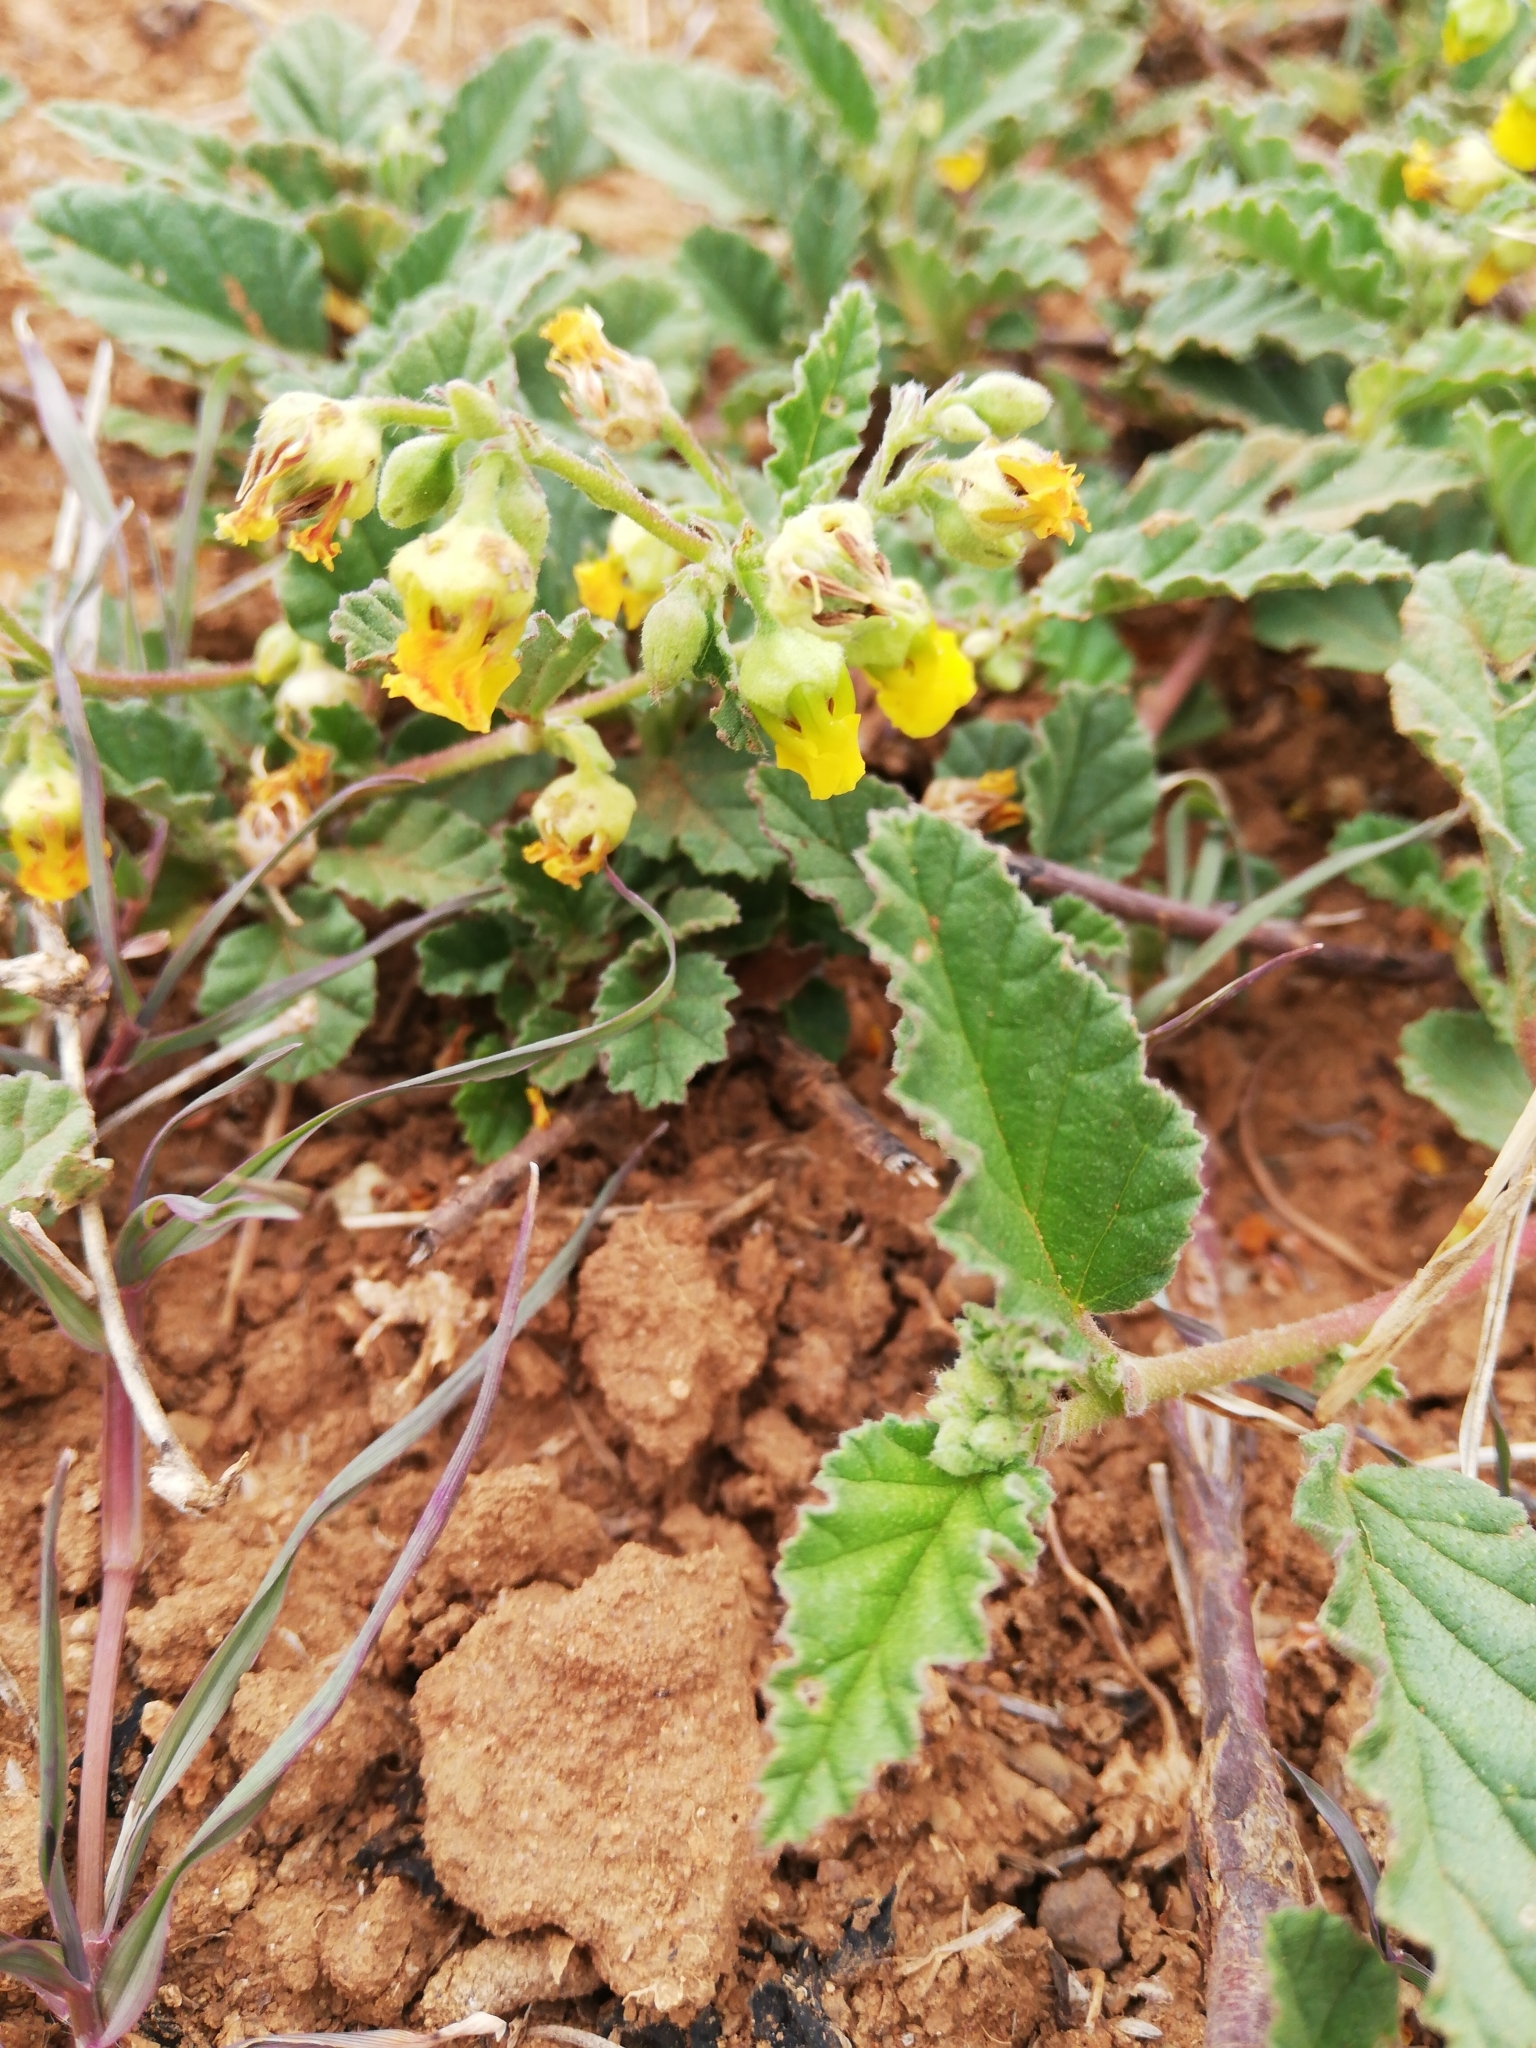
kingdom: Plantae
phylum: Tracheophyta
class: Magnoliopsida
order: Malvales
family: Malvaceae
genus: Hermannia
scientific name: Hermannia althaeoides
